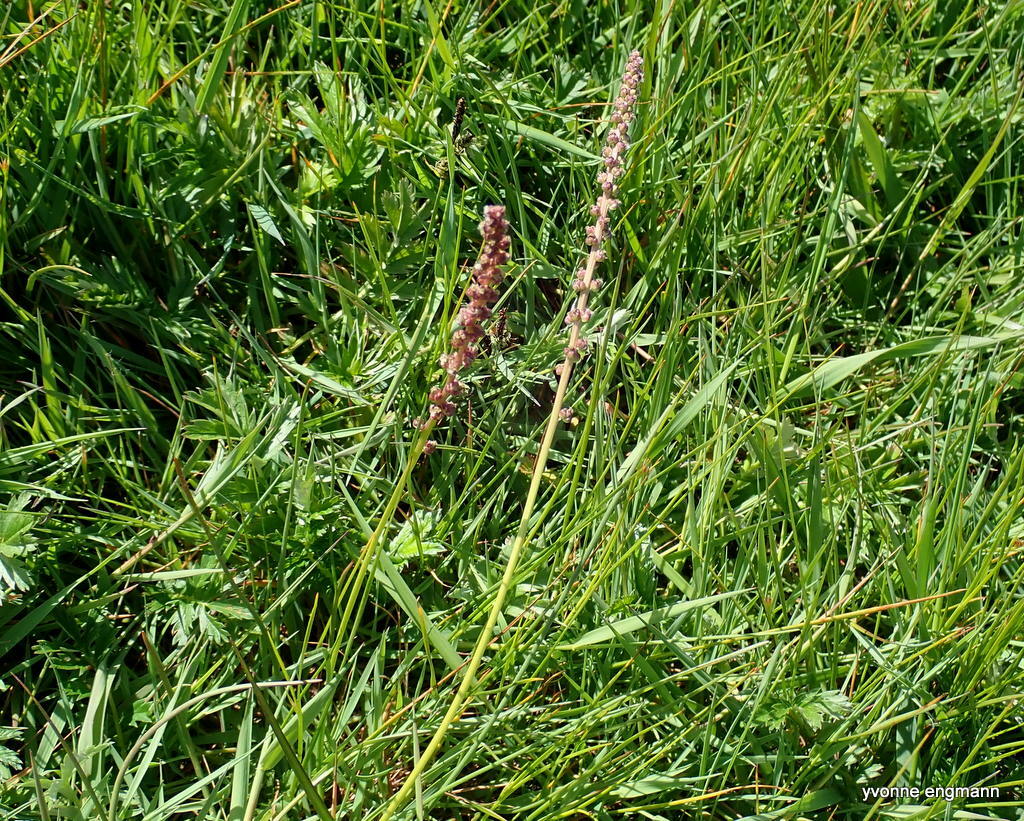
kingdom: Plantae
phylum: Tracheophyta
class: Liliopsida
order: Alismatales
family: Juncaginaceae
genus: Triglochin
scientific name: Triglochin maritima
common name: Sea arrowgrass
